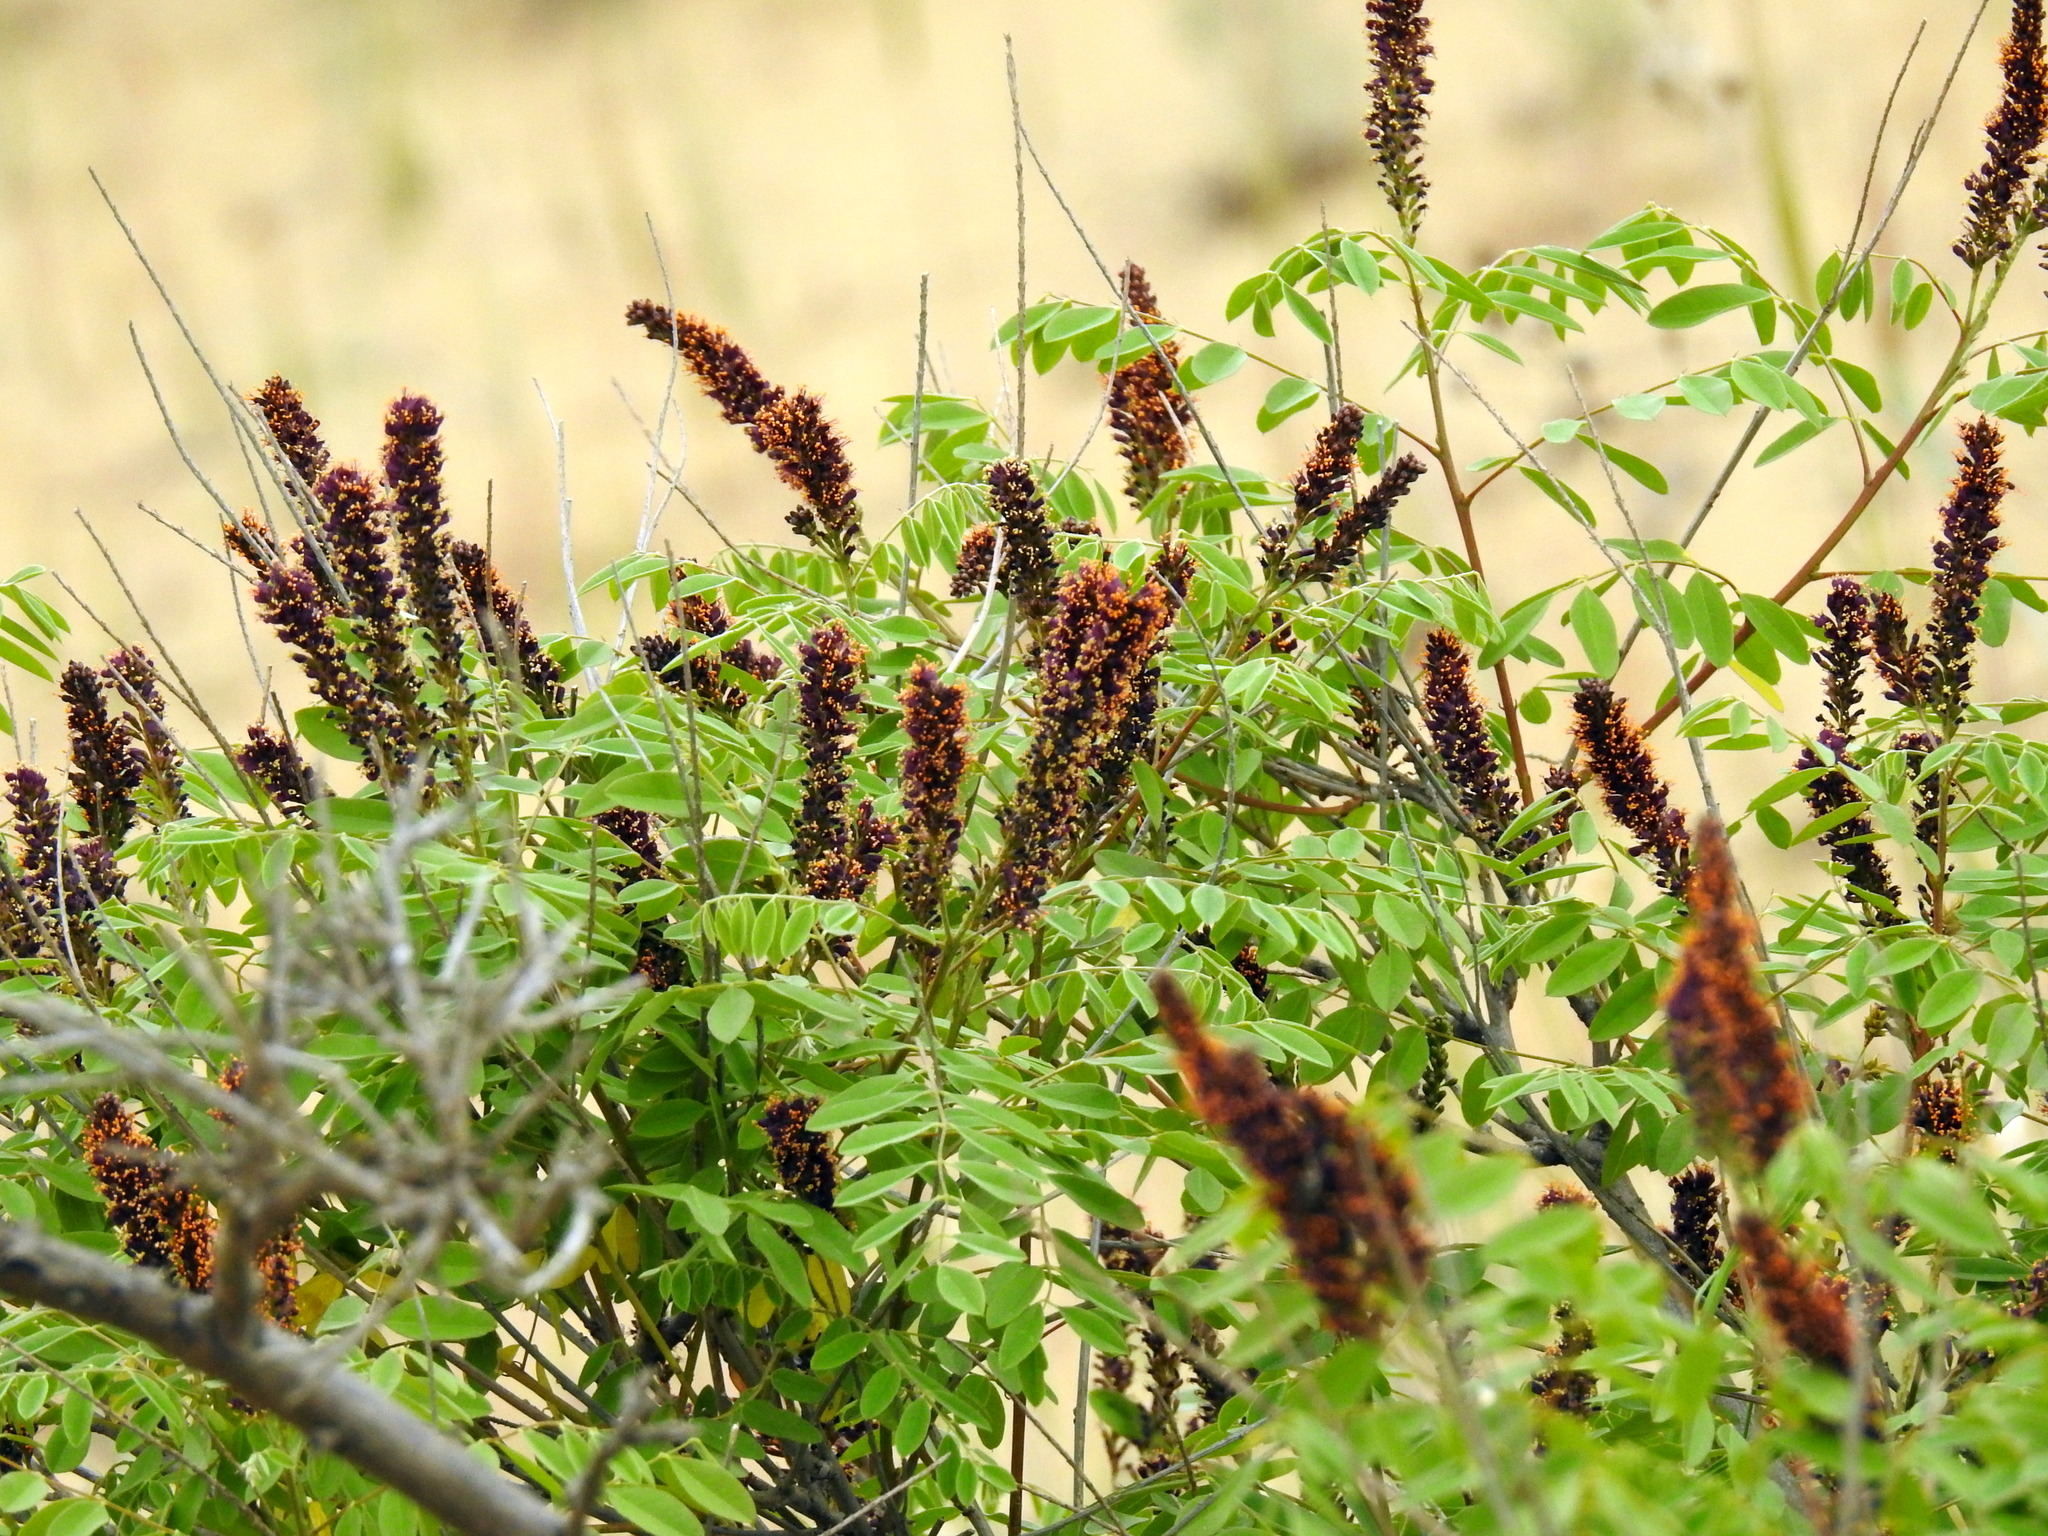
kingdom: Plantae
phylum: Tracheophyta
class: Magnoliopsida
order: Fabales
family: Fabaceae
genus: Amorpha
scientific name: Amorpha fruticosa
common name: False indigo
